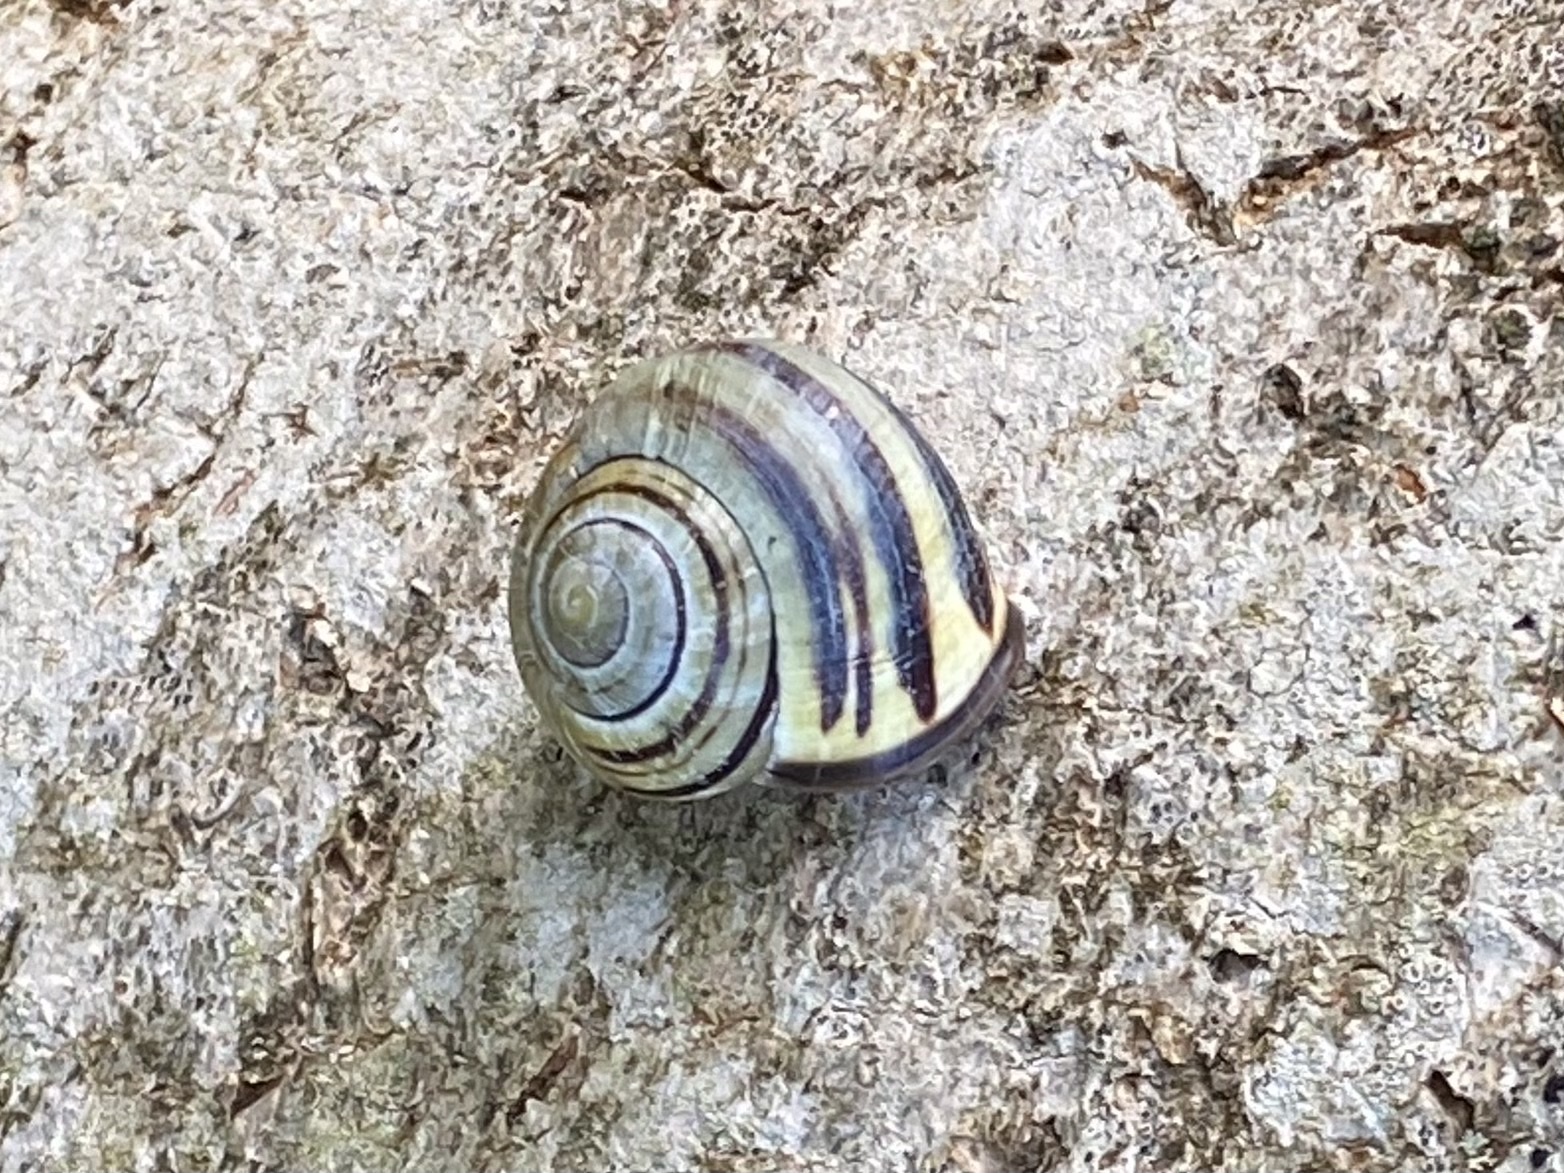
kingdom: Animalia
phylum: Mollusca
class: Gastropoda
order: Stylommatophora
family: Helicidae
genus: Cepaea
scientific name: Cepaea nemoralis
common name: Grovesnail
